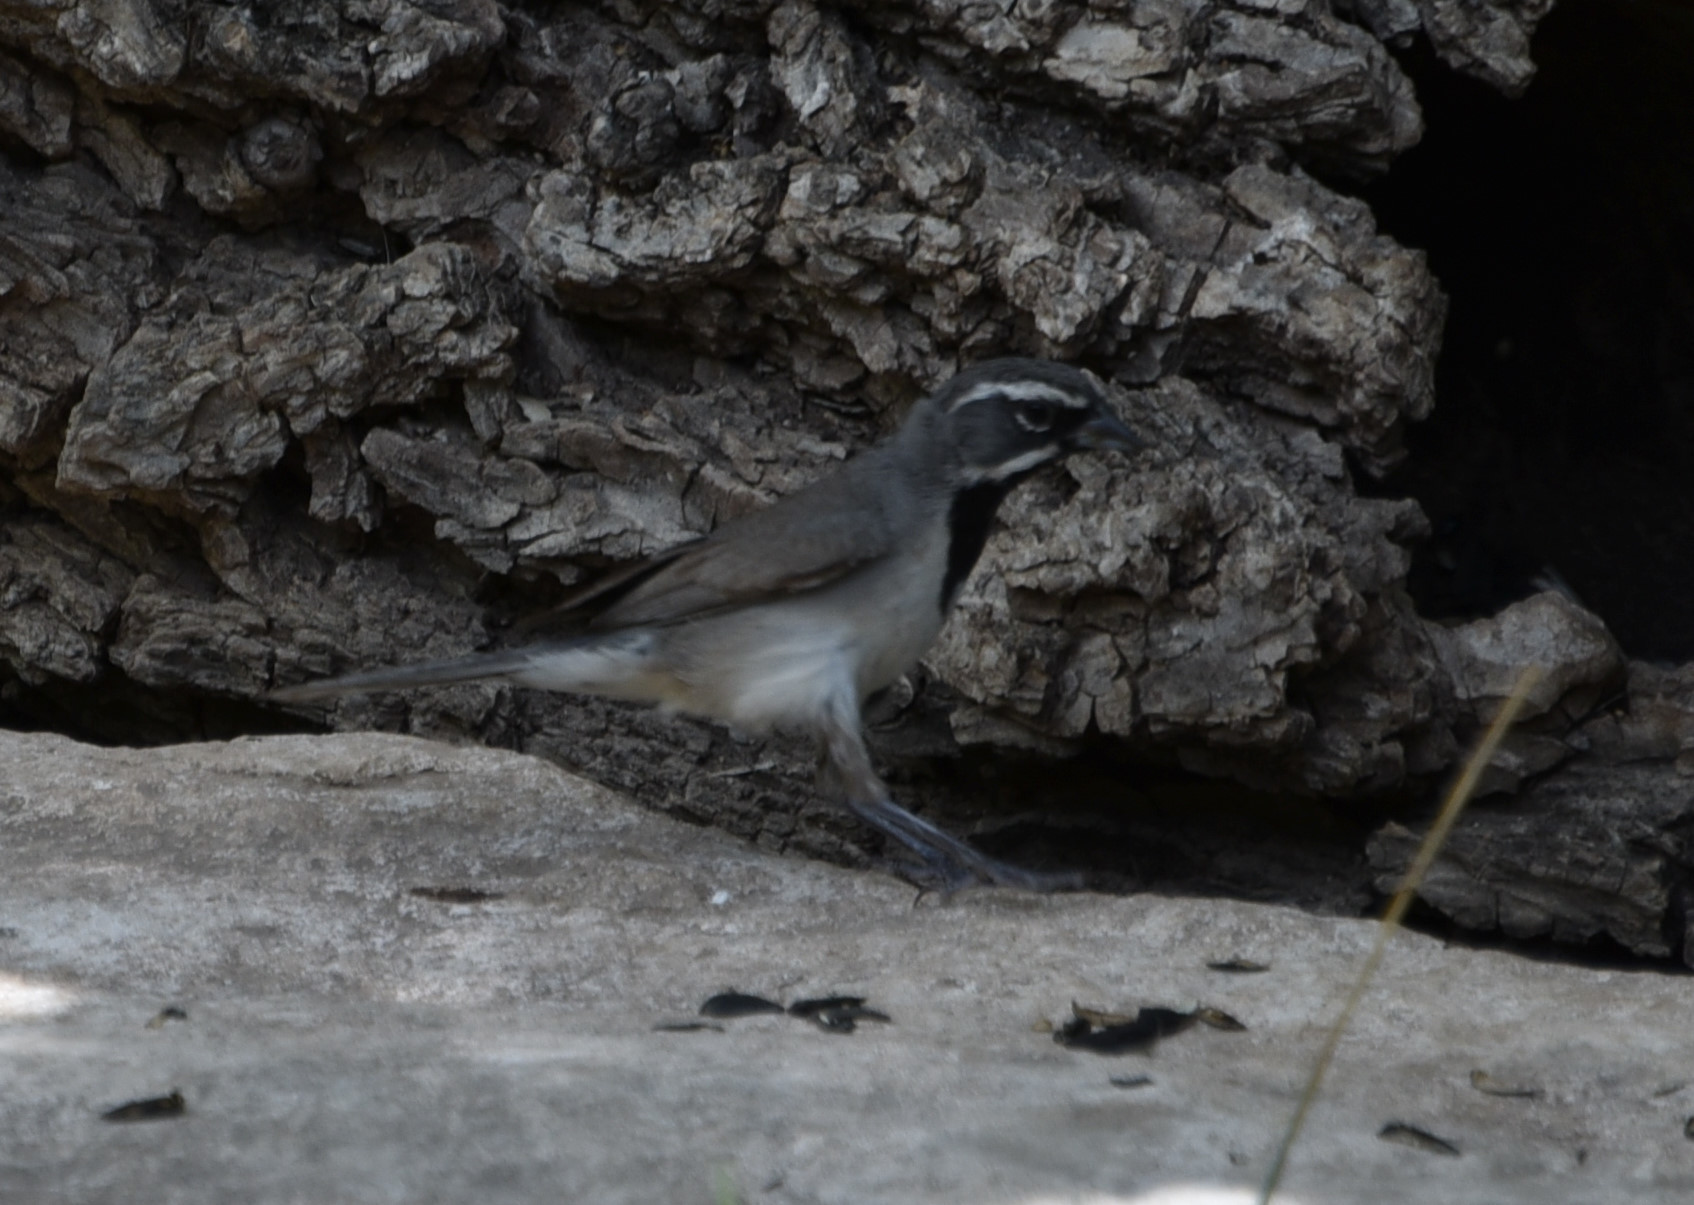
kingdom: Animalia
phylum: Chordata
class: Aves
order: Passeriformes
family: Passerellidae
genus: Amphispiza
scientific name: Amphispiza bilineata
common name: Black-throated sparrow
